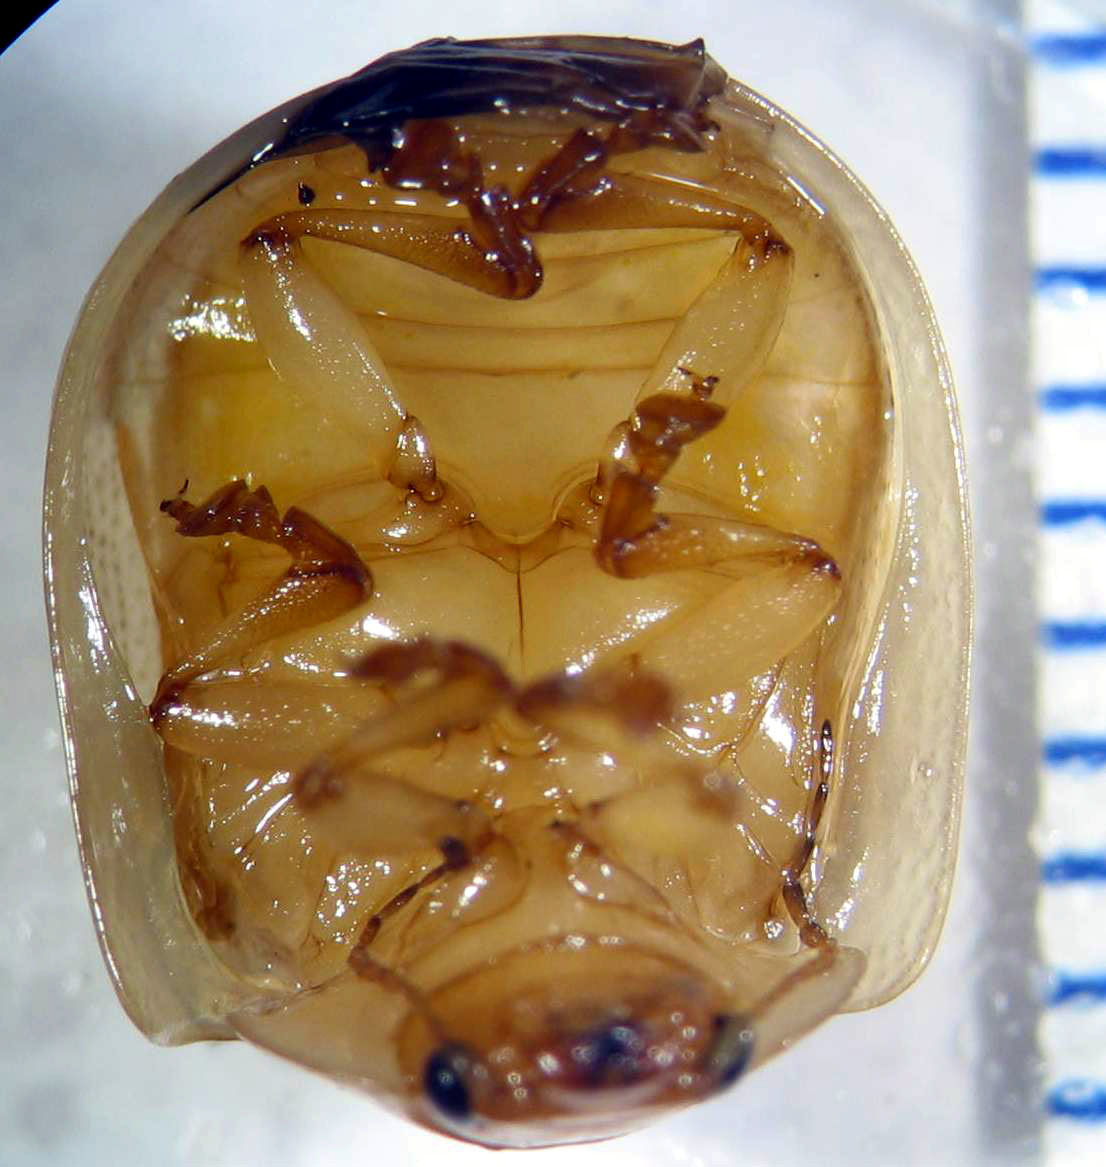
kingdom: Animalia
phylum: Arthropoda
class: Insecta
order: Coleoptera
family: Chrysomelidae
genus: Paropsisterna
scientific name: Paropsisterna lignea
